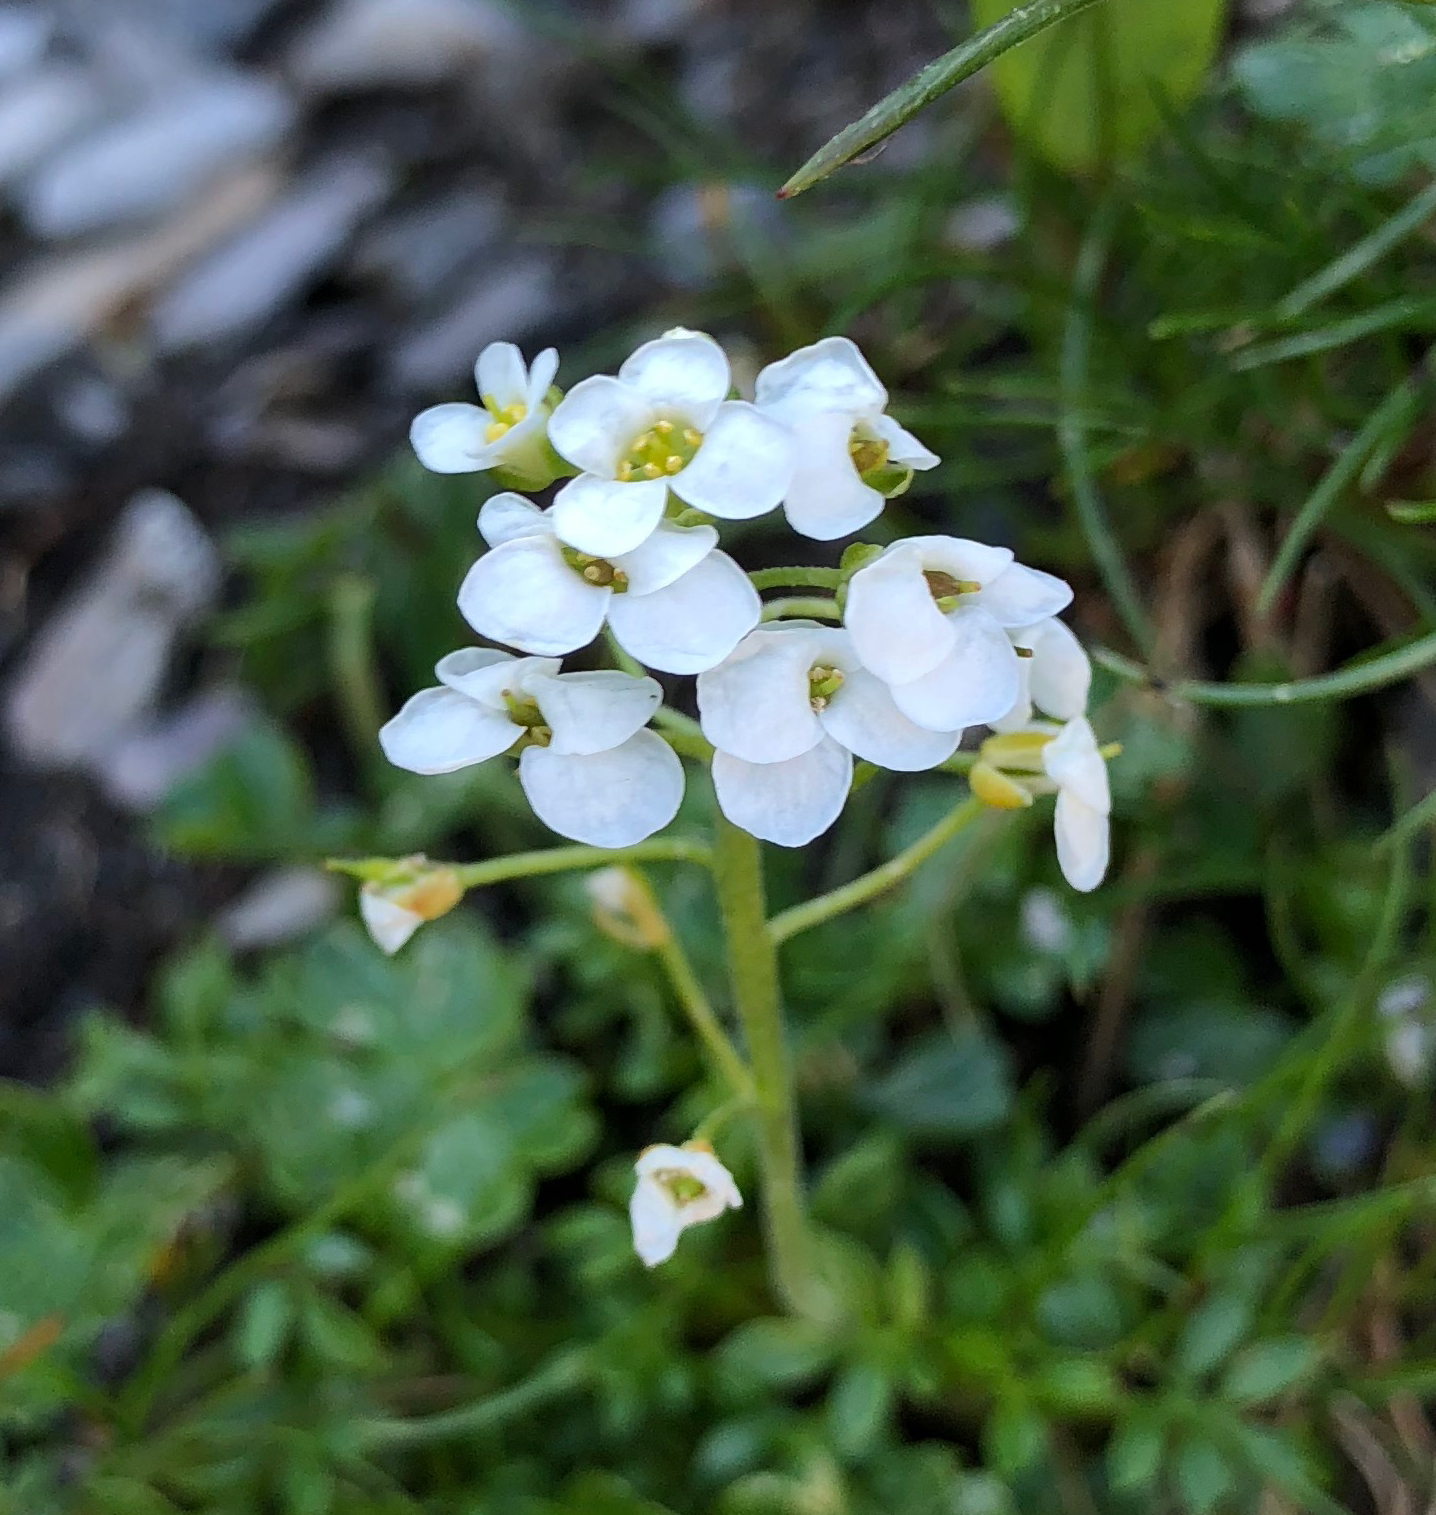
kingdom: Plantae
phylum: Tracheophyta
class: Magnoliopsida
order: Brassicales
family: Brassicaceae
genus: Hornungia
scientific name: Hornungia alpina
